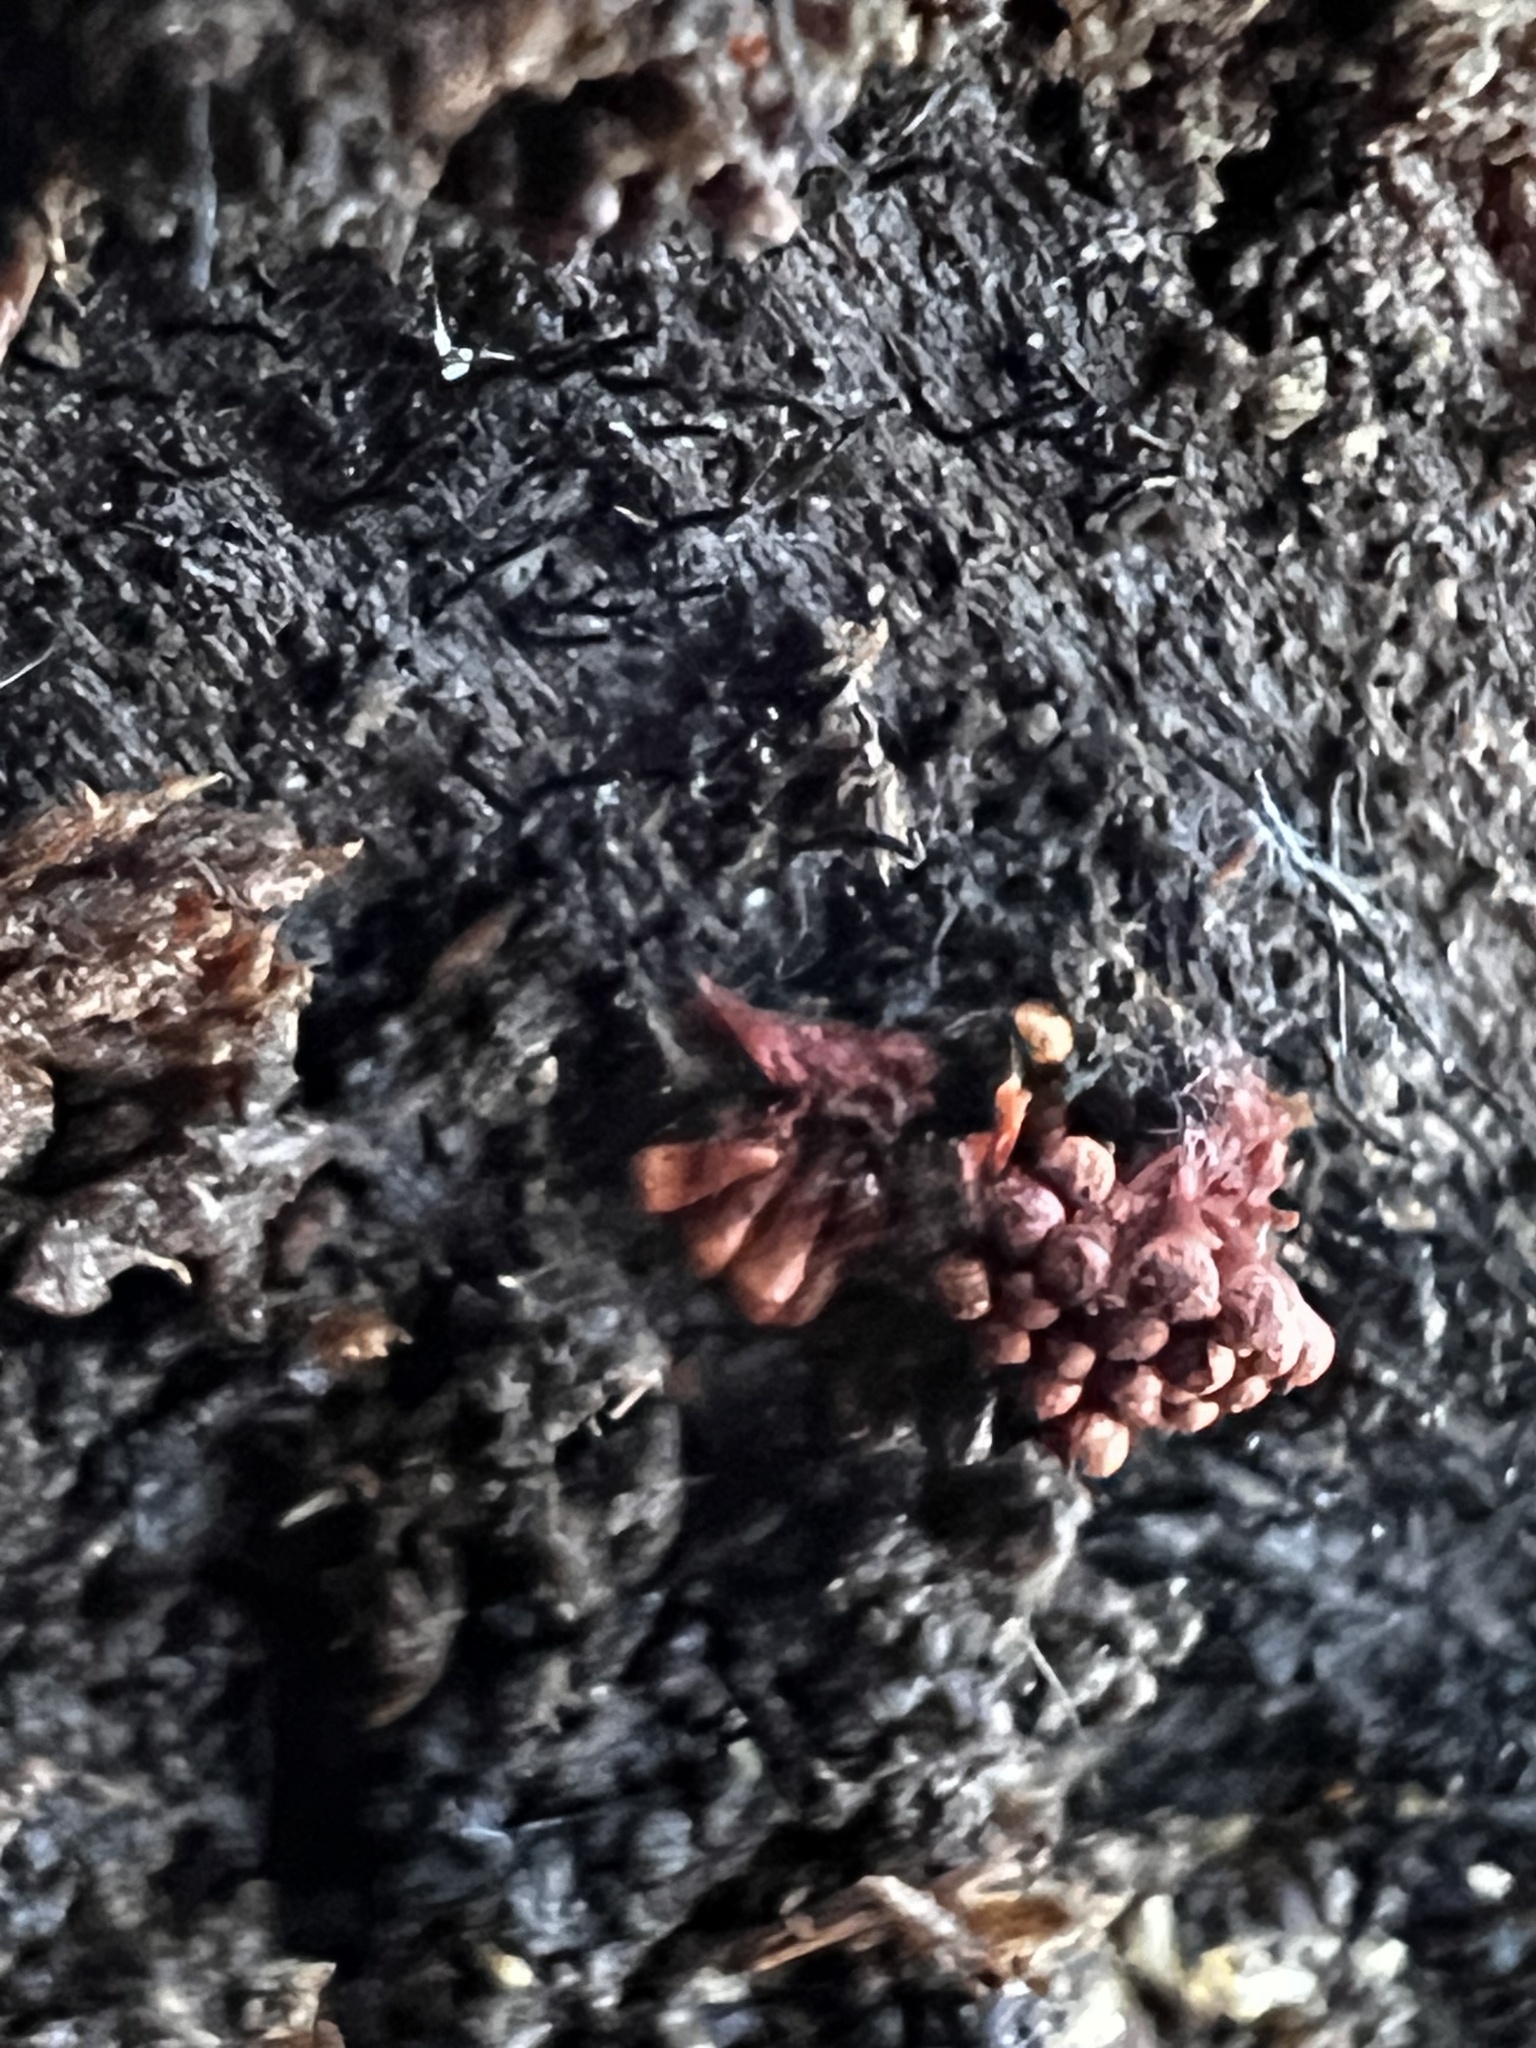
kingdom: Protozoa
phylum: Mycetozoa
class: Myxomycetes
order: Trichiales
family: Trichiaceae
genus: Metatrichia
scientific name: Metatrichia vesparia
